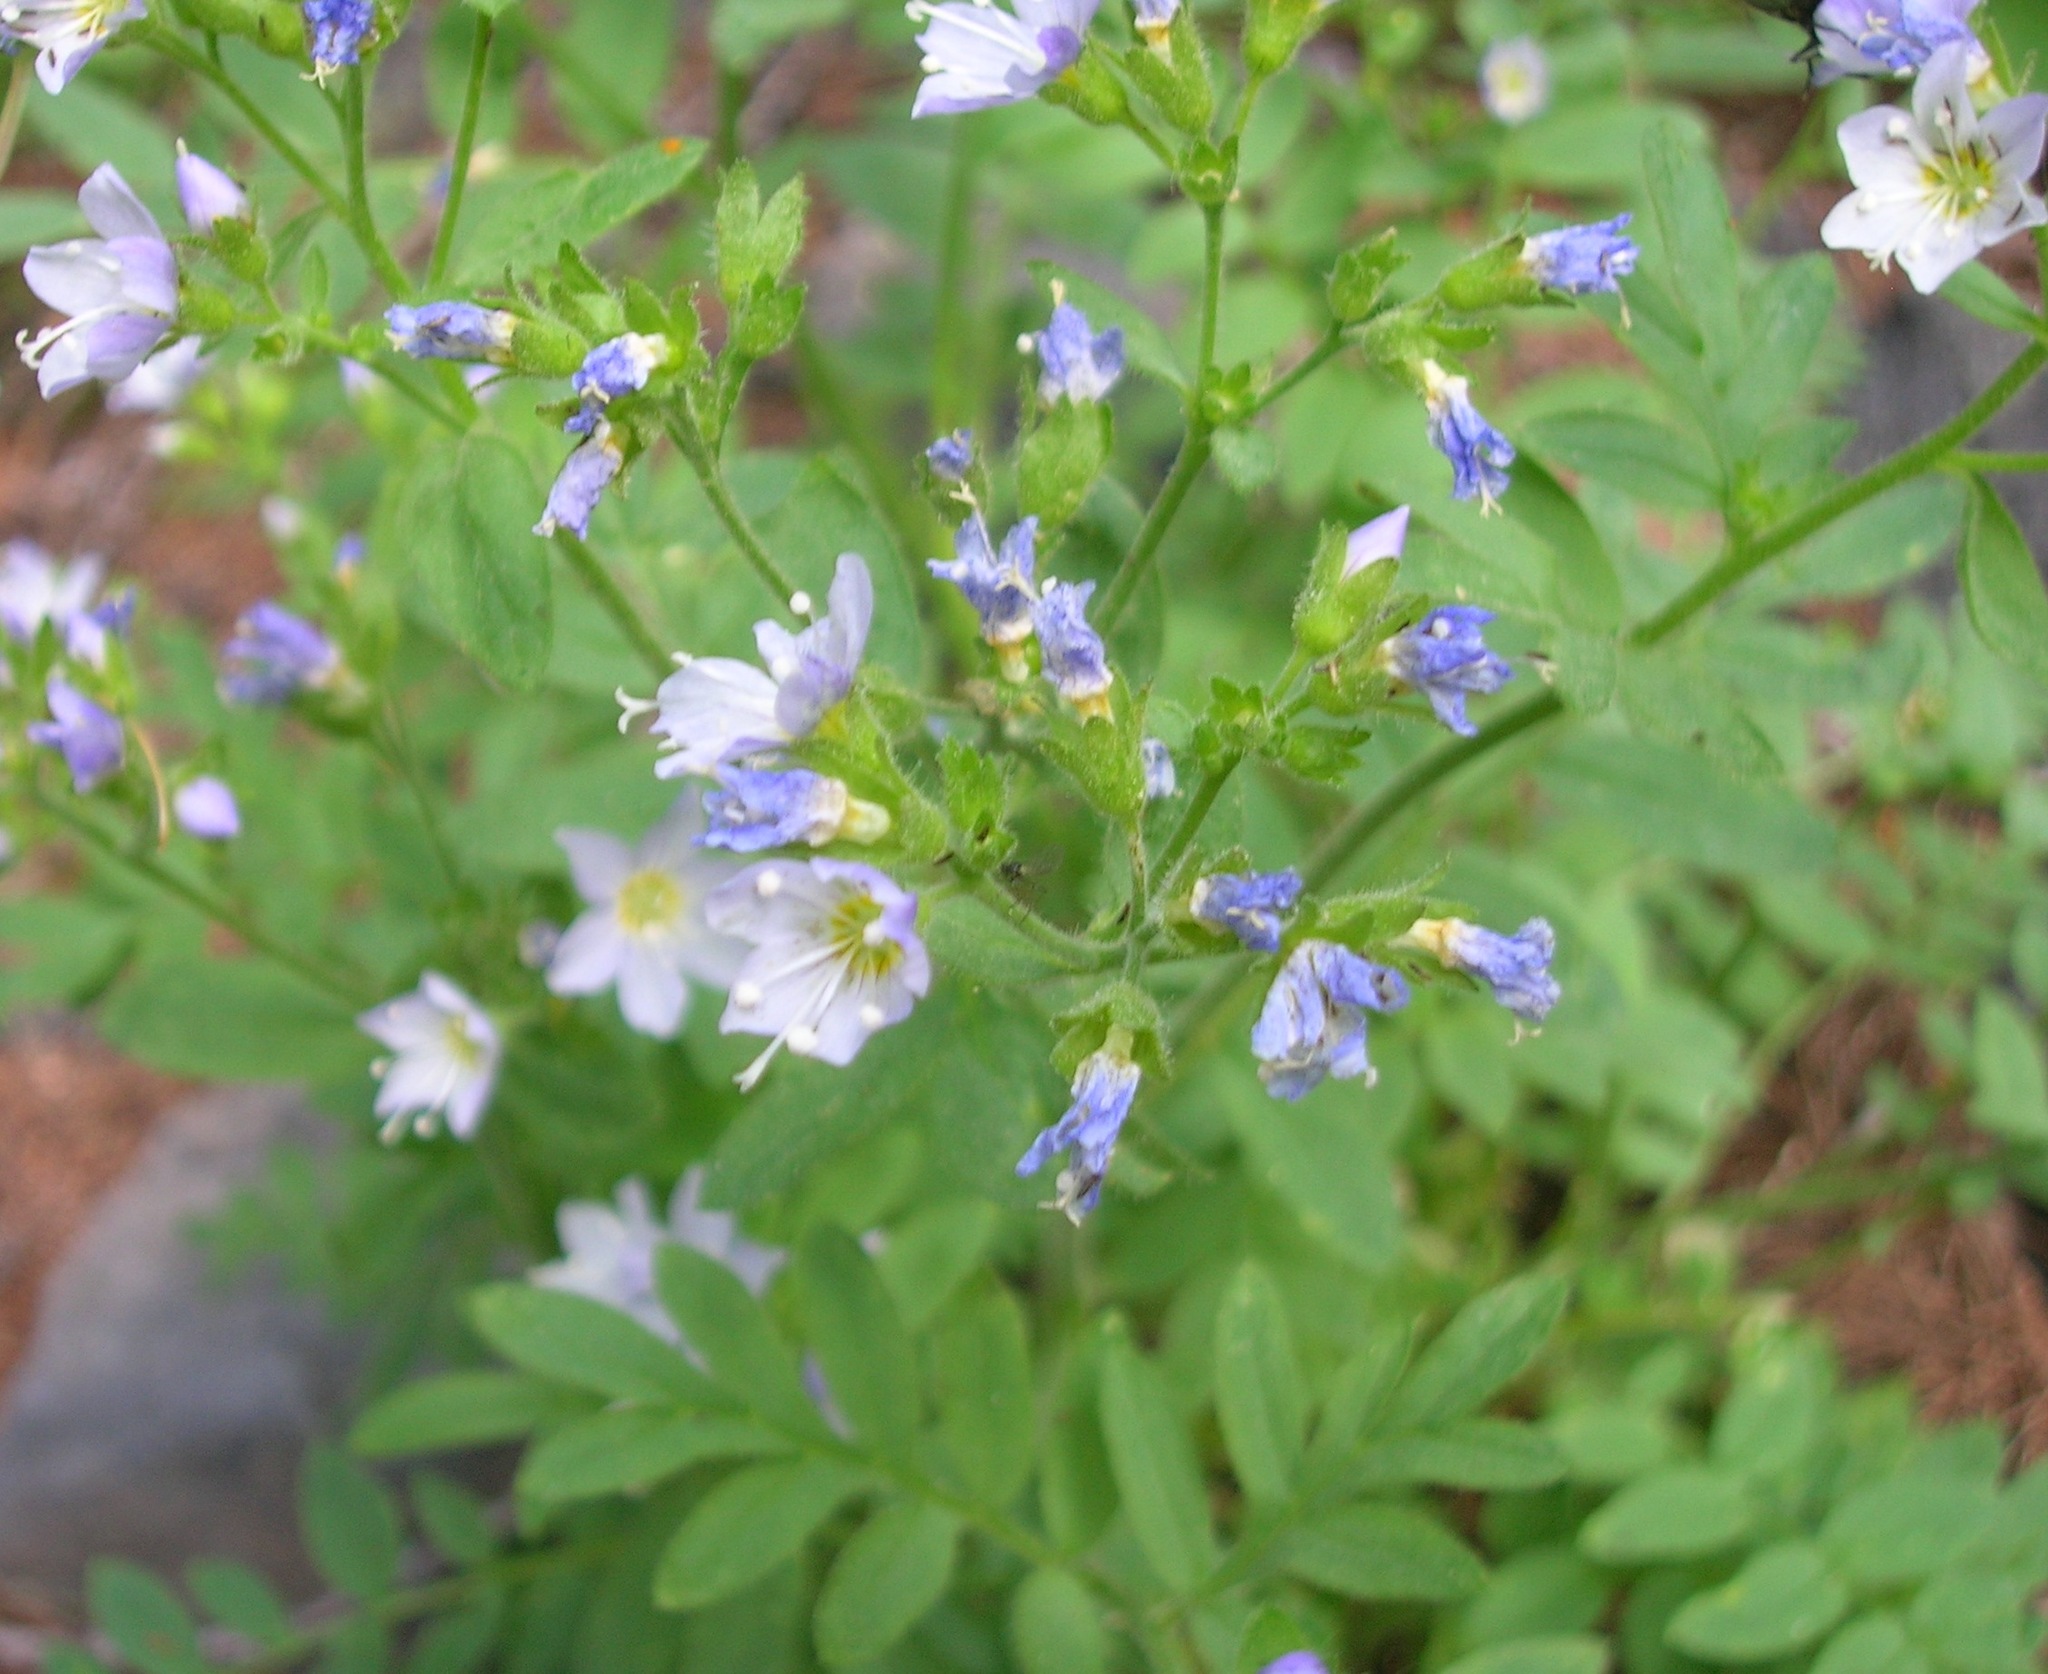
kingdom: Plantae
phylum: Tracheophyta
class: Magnoliopsida
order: Ericales
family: Polemoniaceae
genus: Polemonium
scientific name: Polemonium californicum
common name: California jacob's ladder
